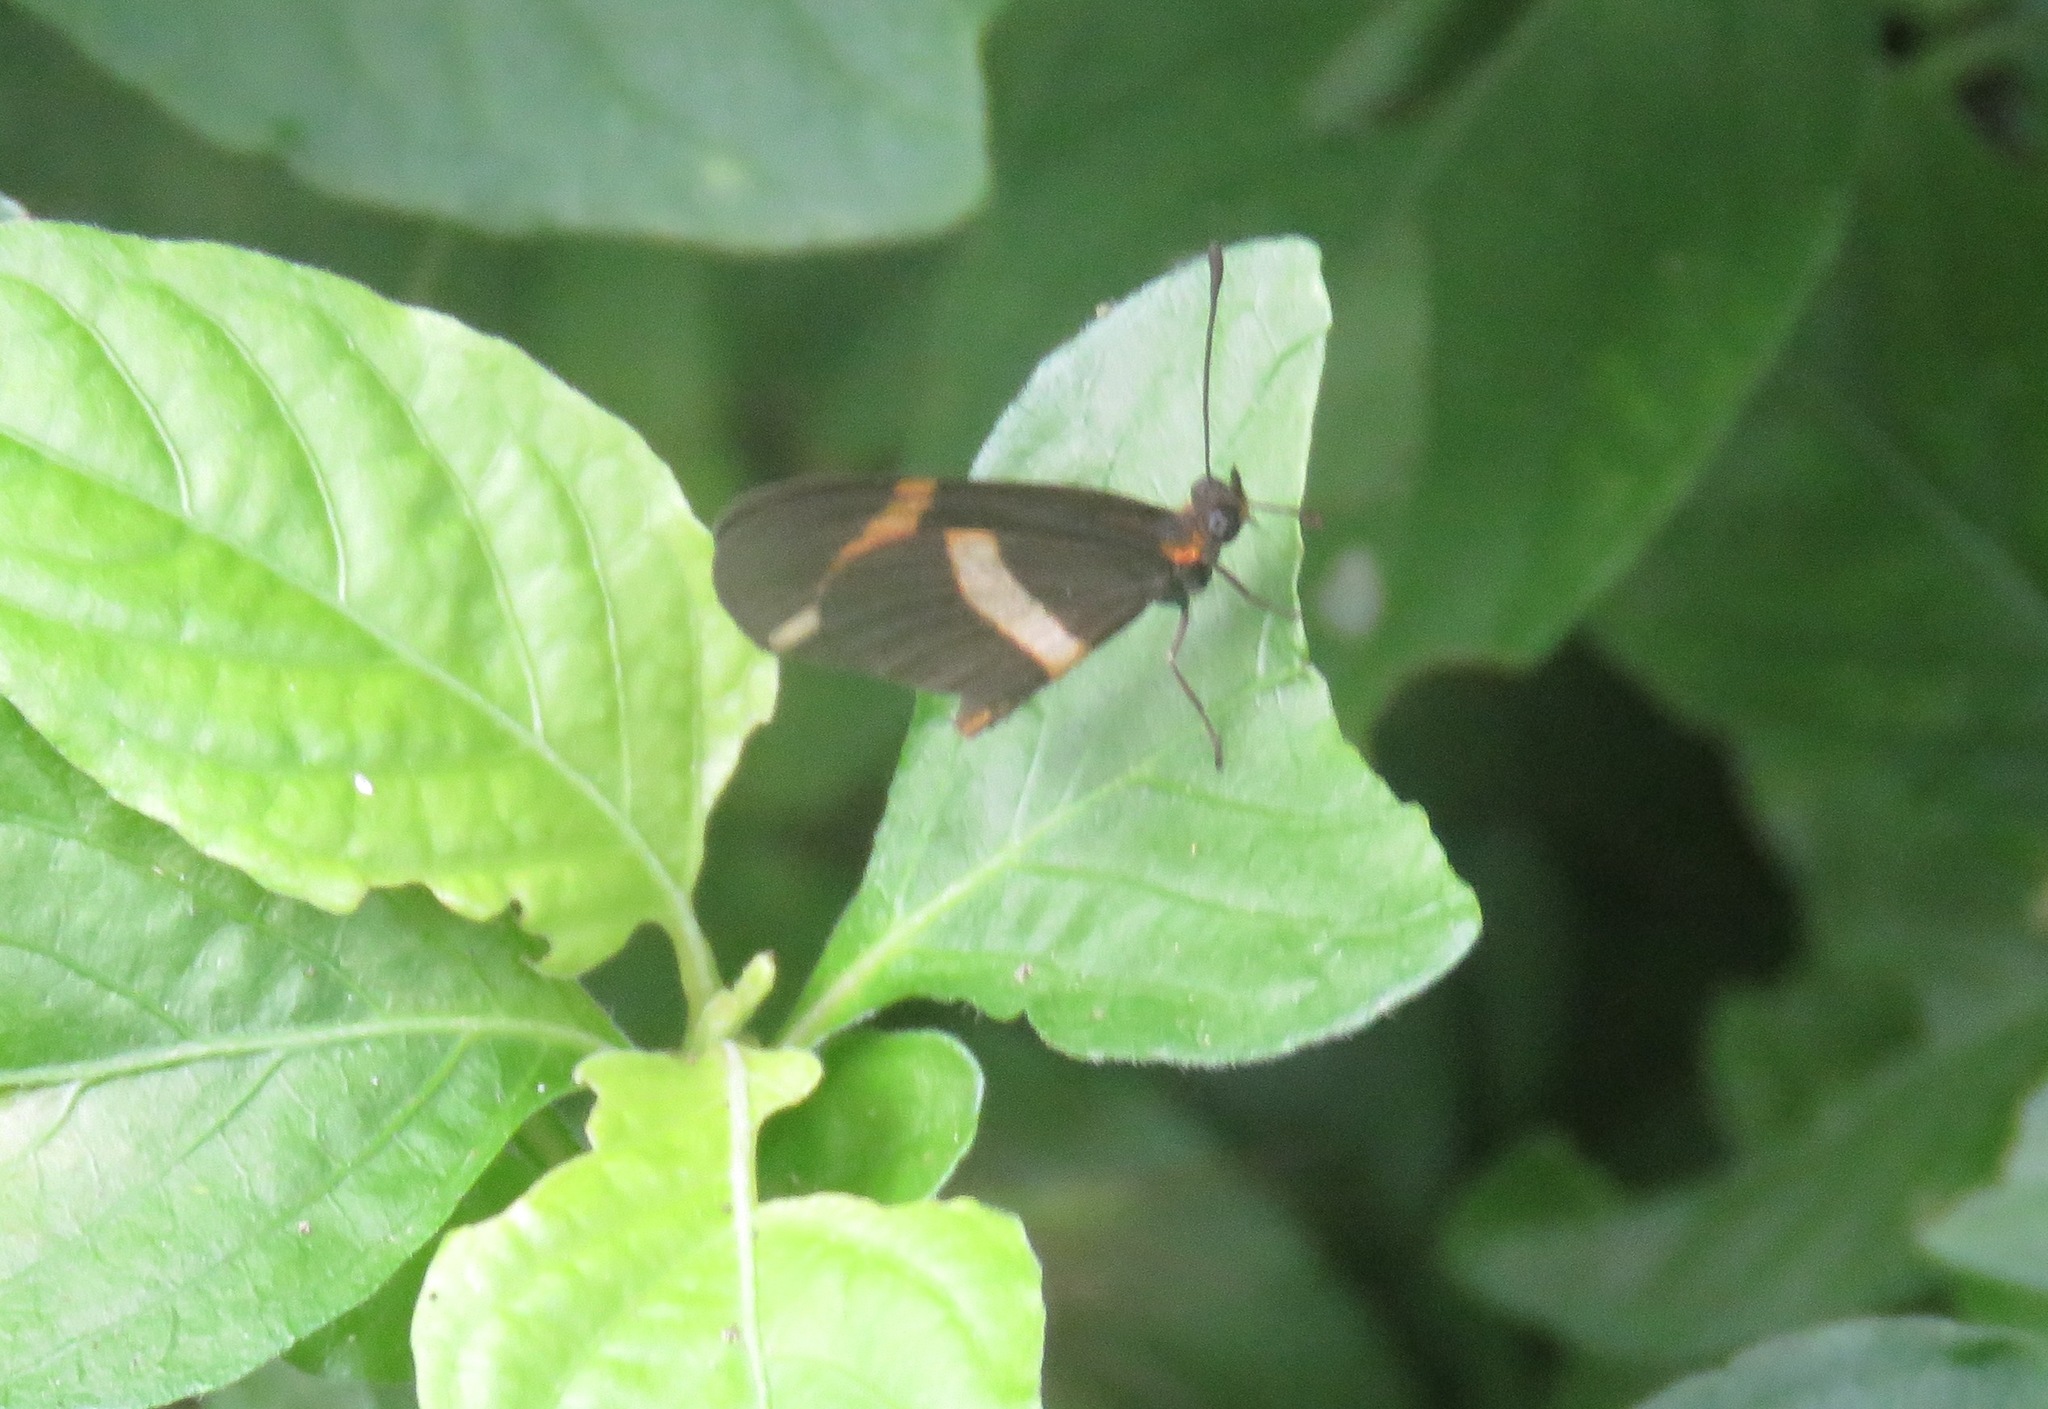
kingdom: Animalia
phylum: Arthropoda
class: Insecta
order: Lepidoptera
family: Nymphalidae
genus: Microtia
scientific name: Microtia elva
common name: Elf
